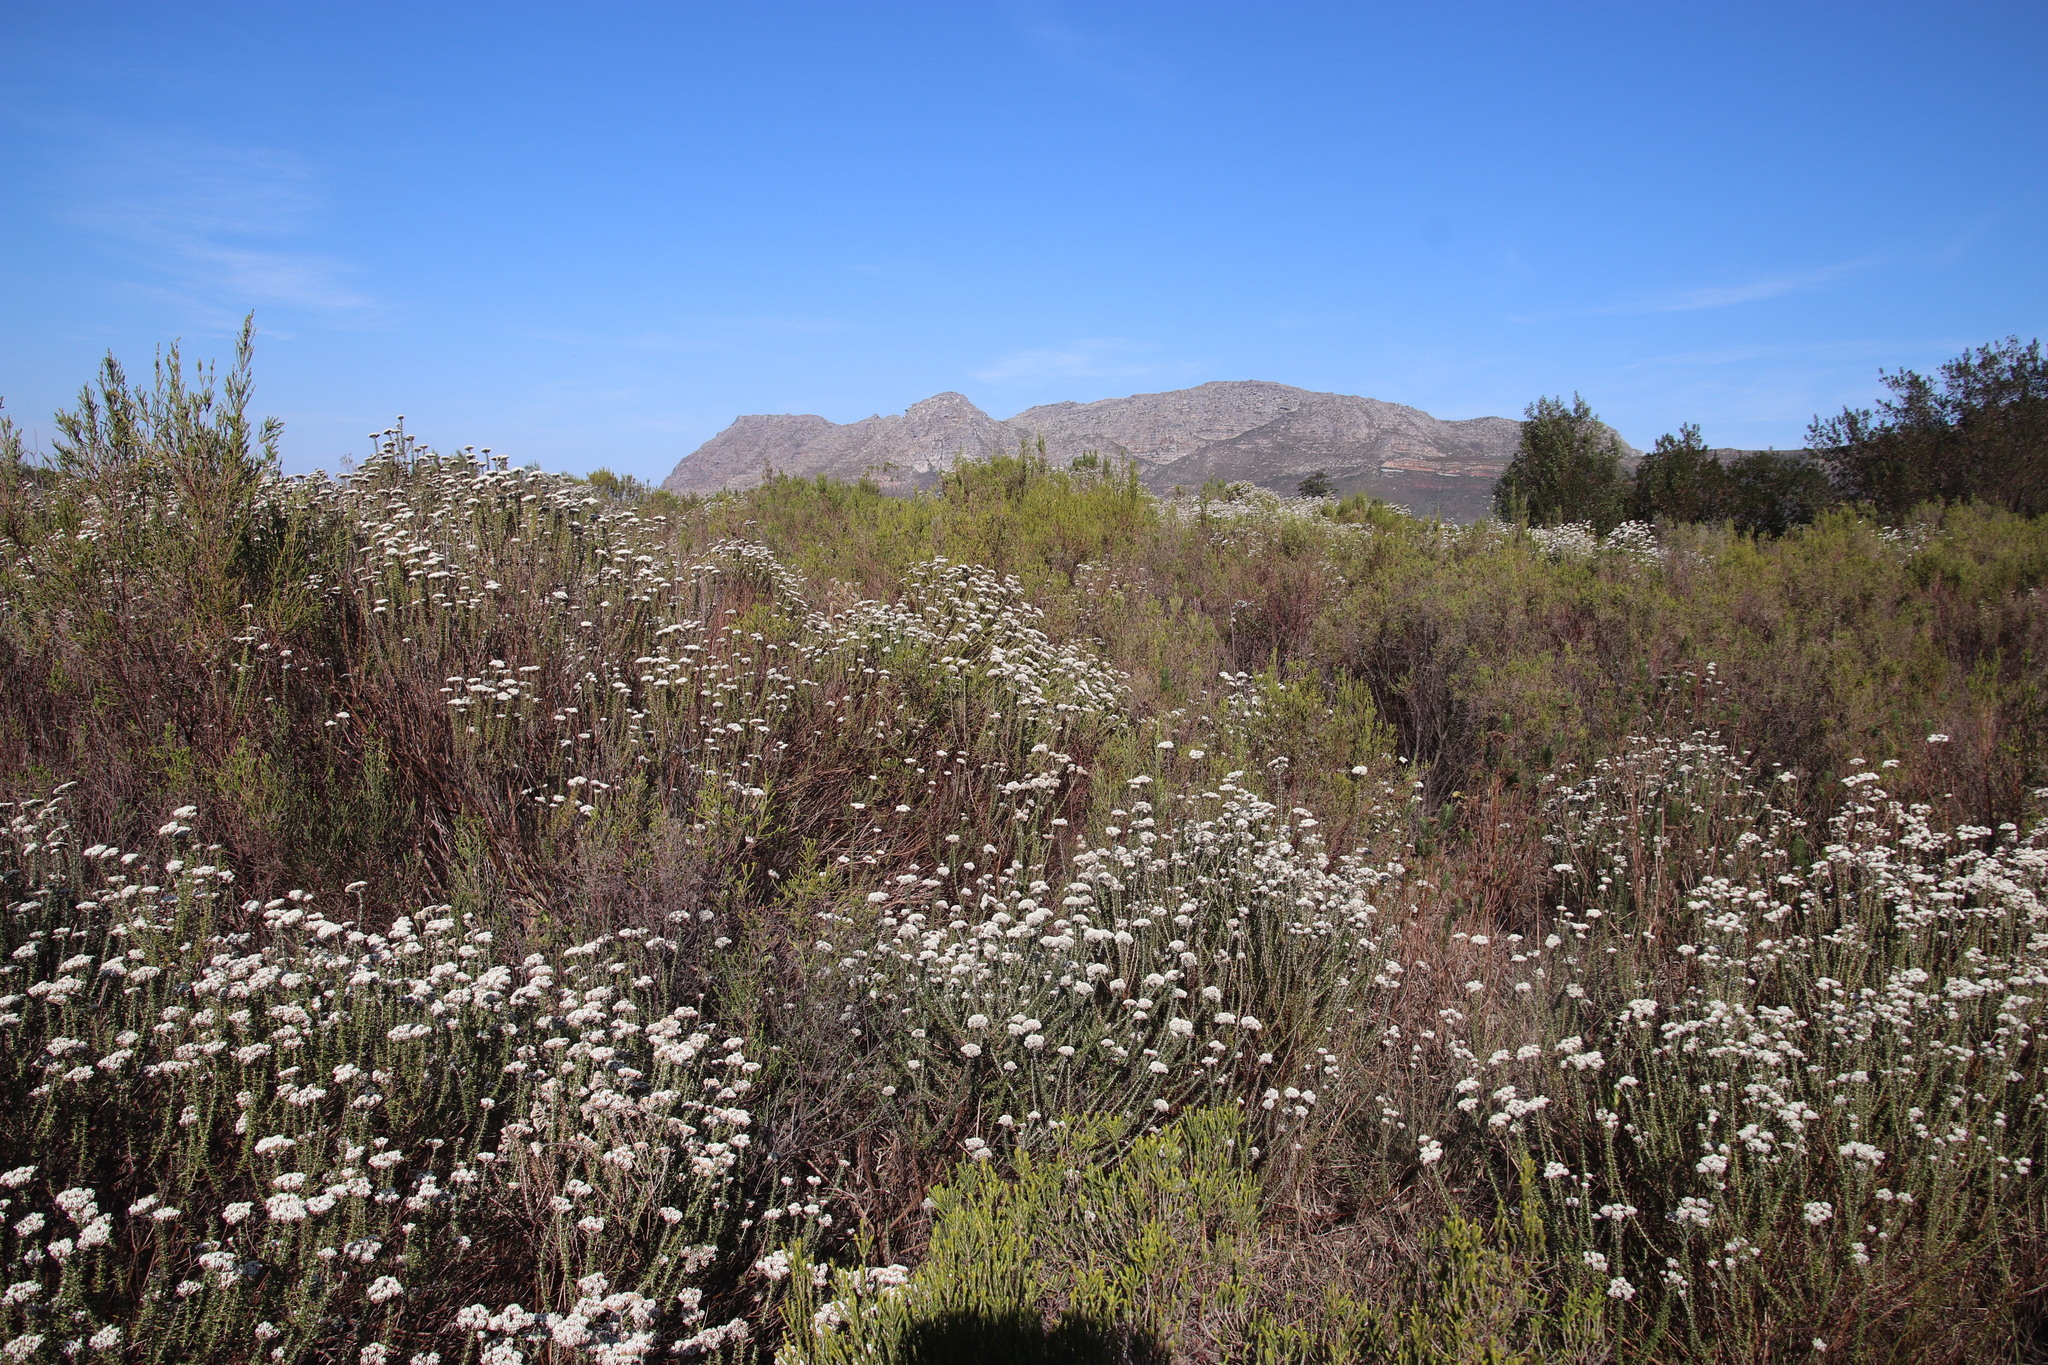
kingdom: Plantae
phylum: Tracheophyta
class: Magnoliopsida
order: Asterales
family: Asteraceae
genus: Metalasia
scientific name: Metalasia densa
